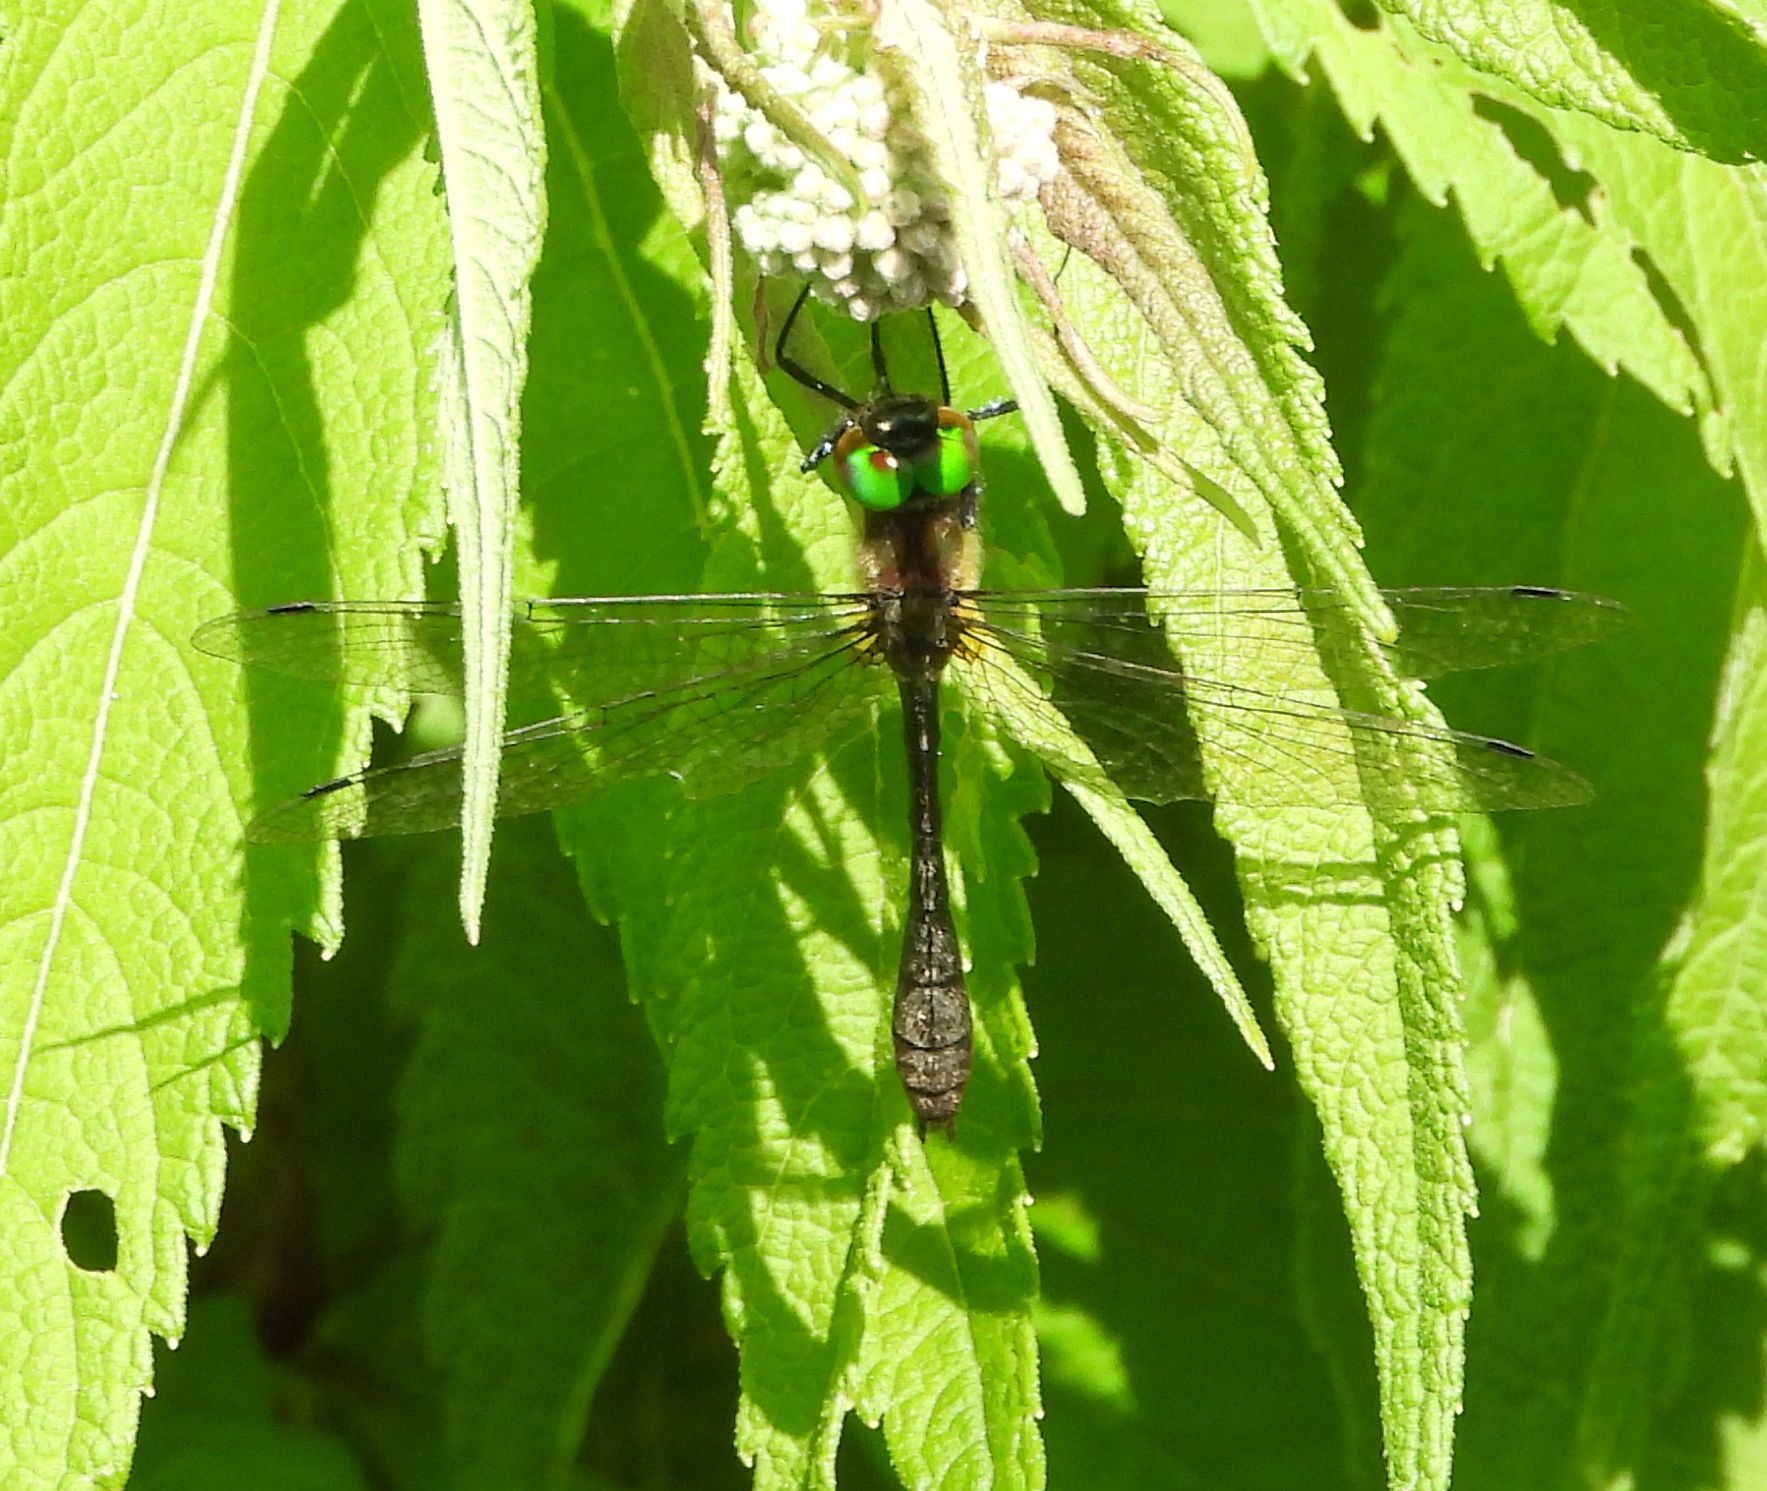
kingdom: Animalia
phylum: Arthropoda
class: Insecta
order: Odonata
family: Corduliidae
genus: Dorocordulia
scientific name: Dorocordulia libera
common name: Racket-tailed emerald
